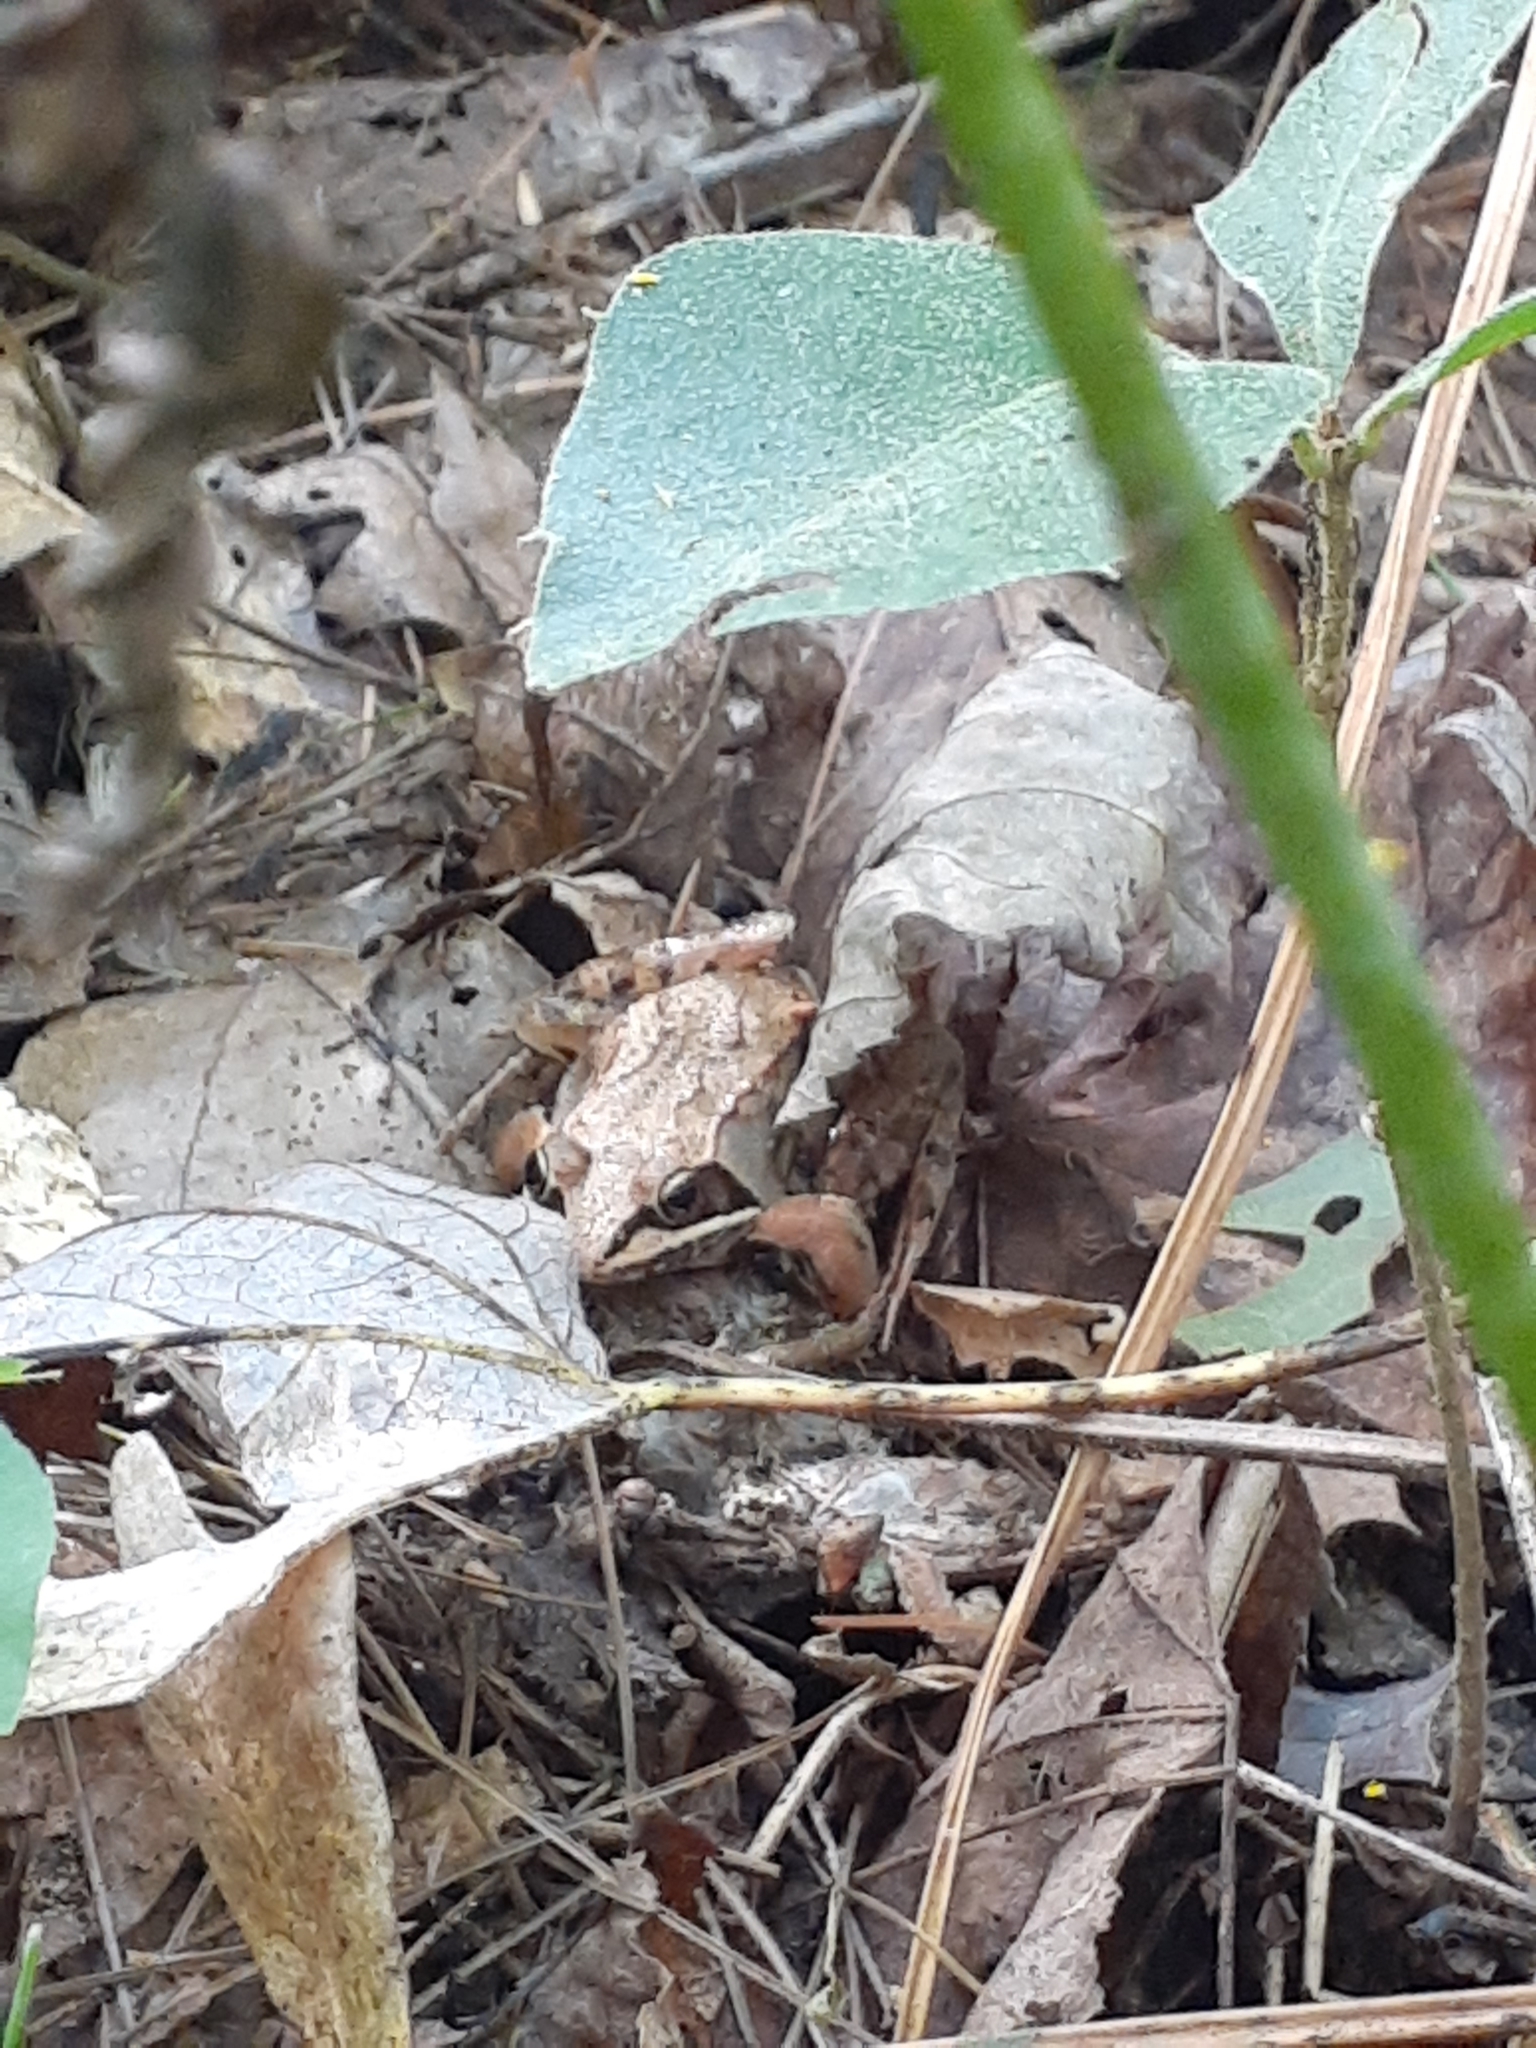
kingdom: Animalia
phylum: Chordata
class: Amphibia
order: Anura
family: Ranidae
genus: Lithobates
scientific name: Lithobates sylvaticus
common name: Wood frog
